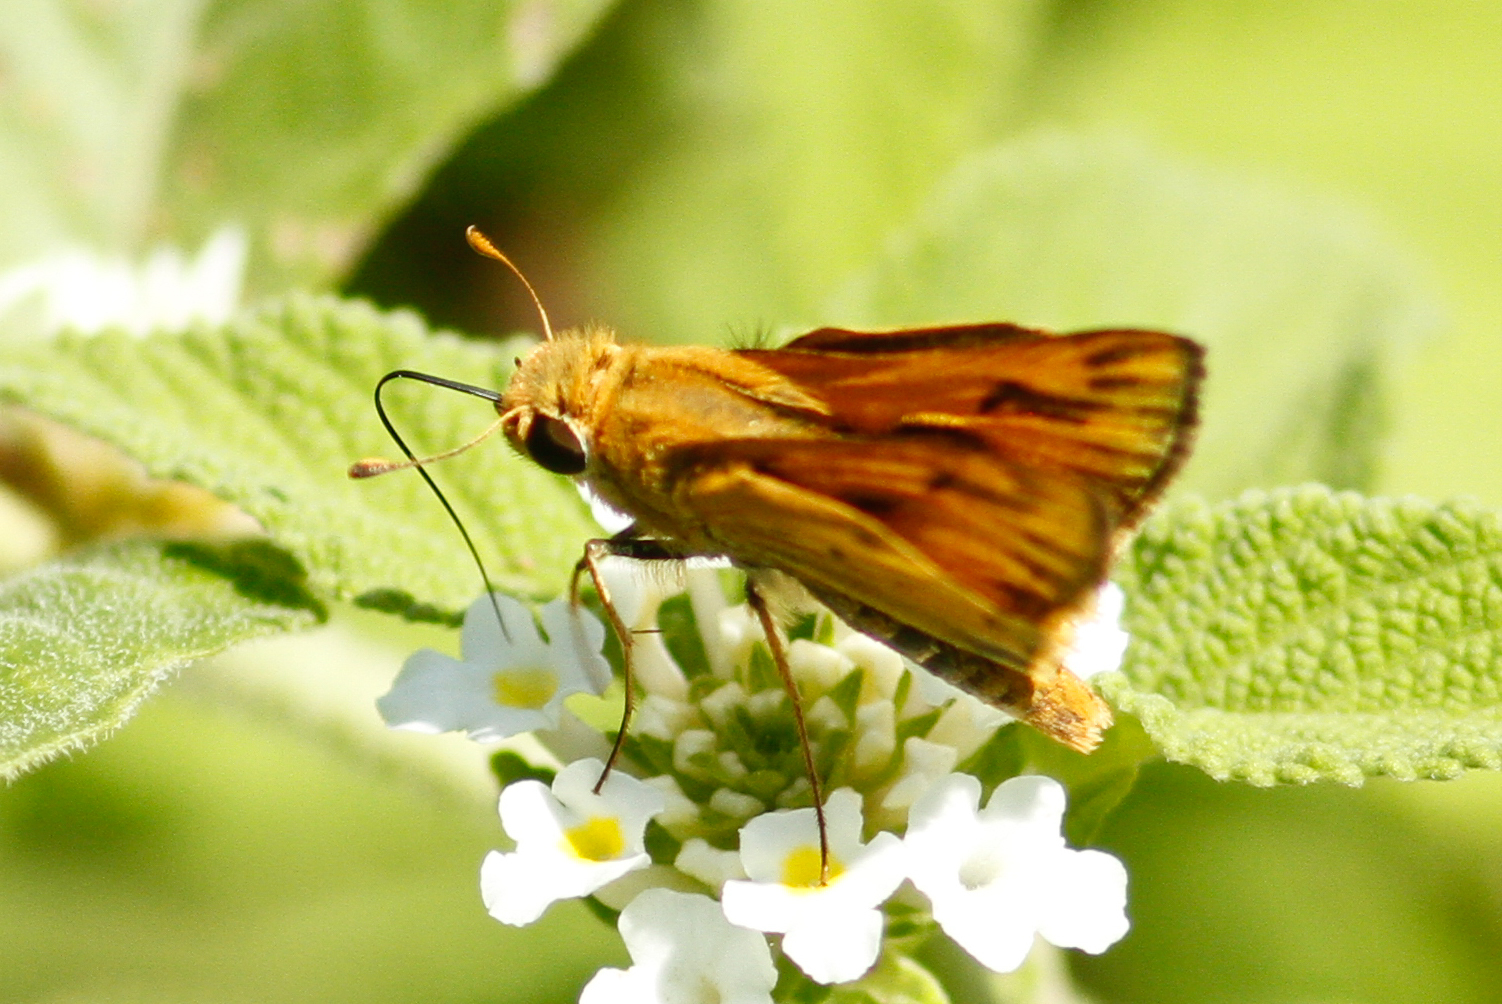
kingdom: Animalia
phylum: Arthropoda
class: Insecta
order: Lepidoptera
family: Hesperiidae
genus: Hylephila
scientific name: Hylephila phyleus
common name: Fiery skipper
